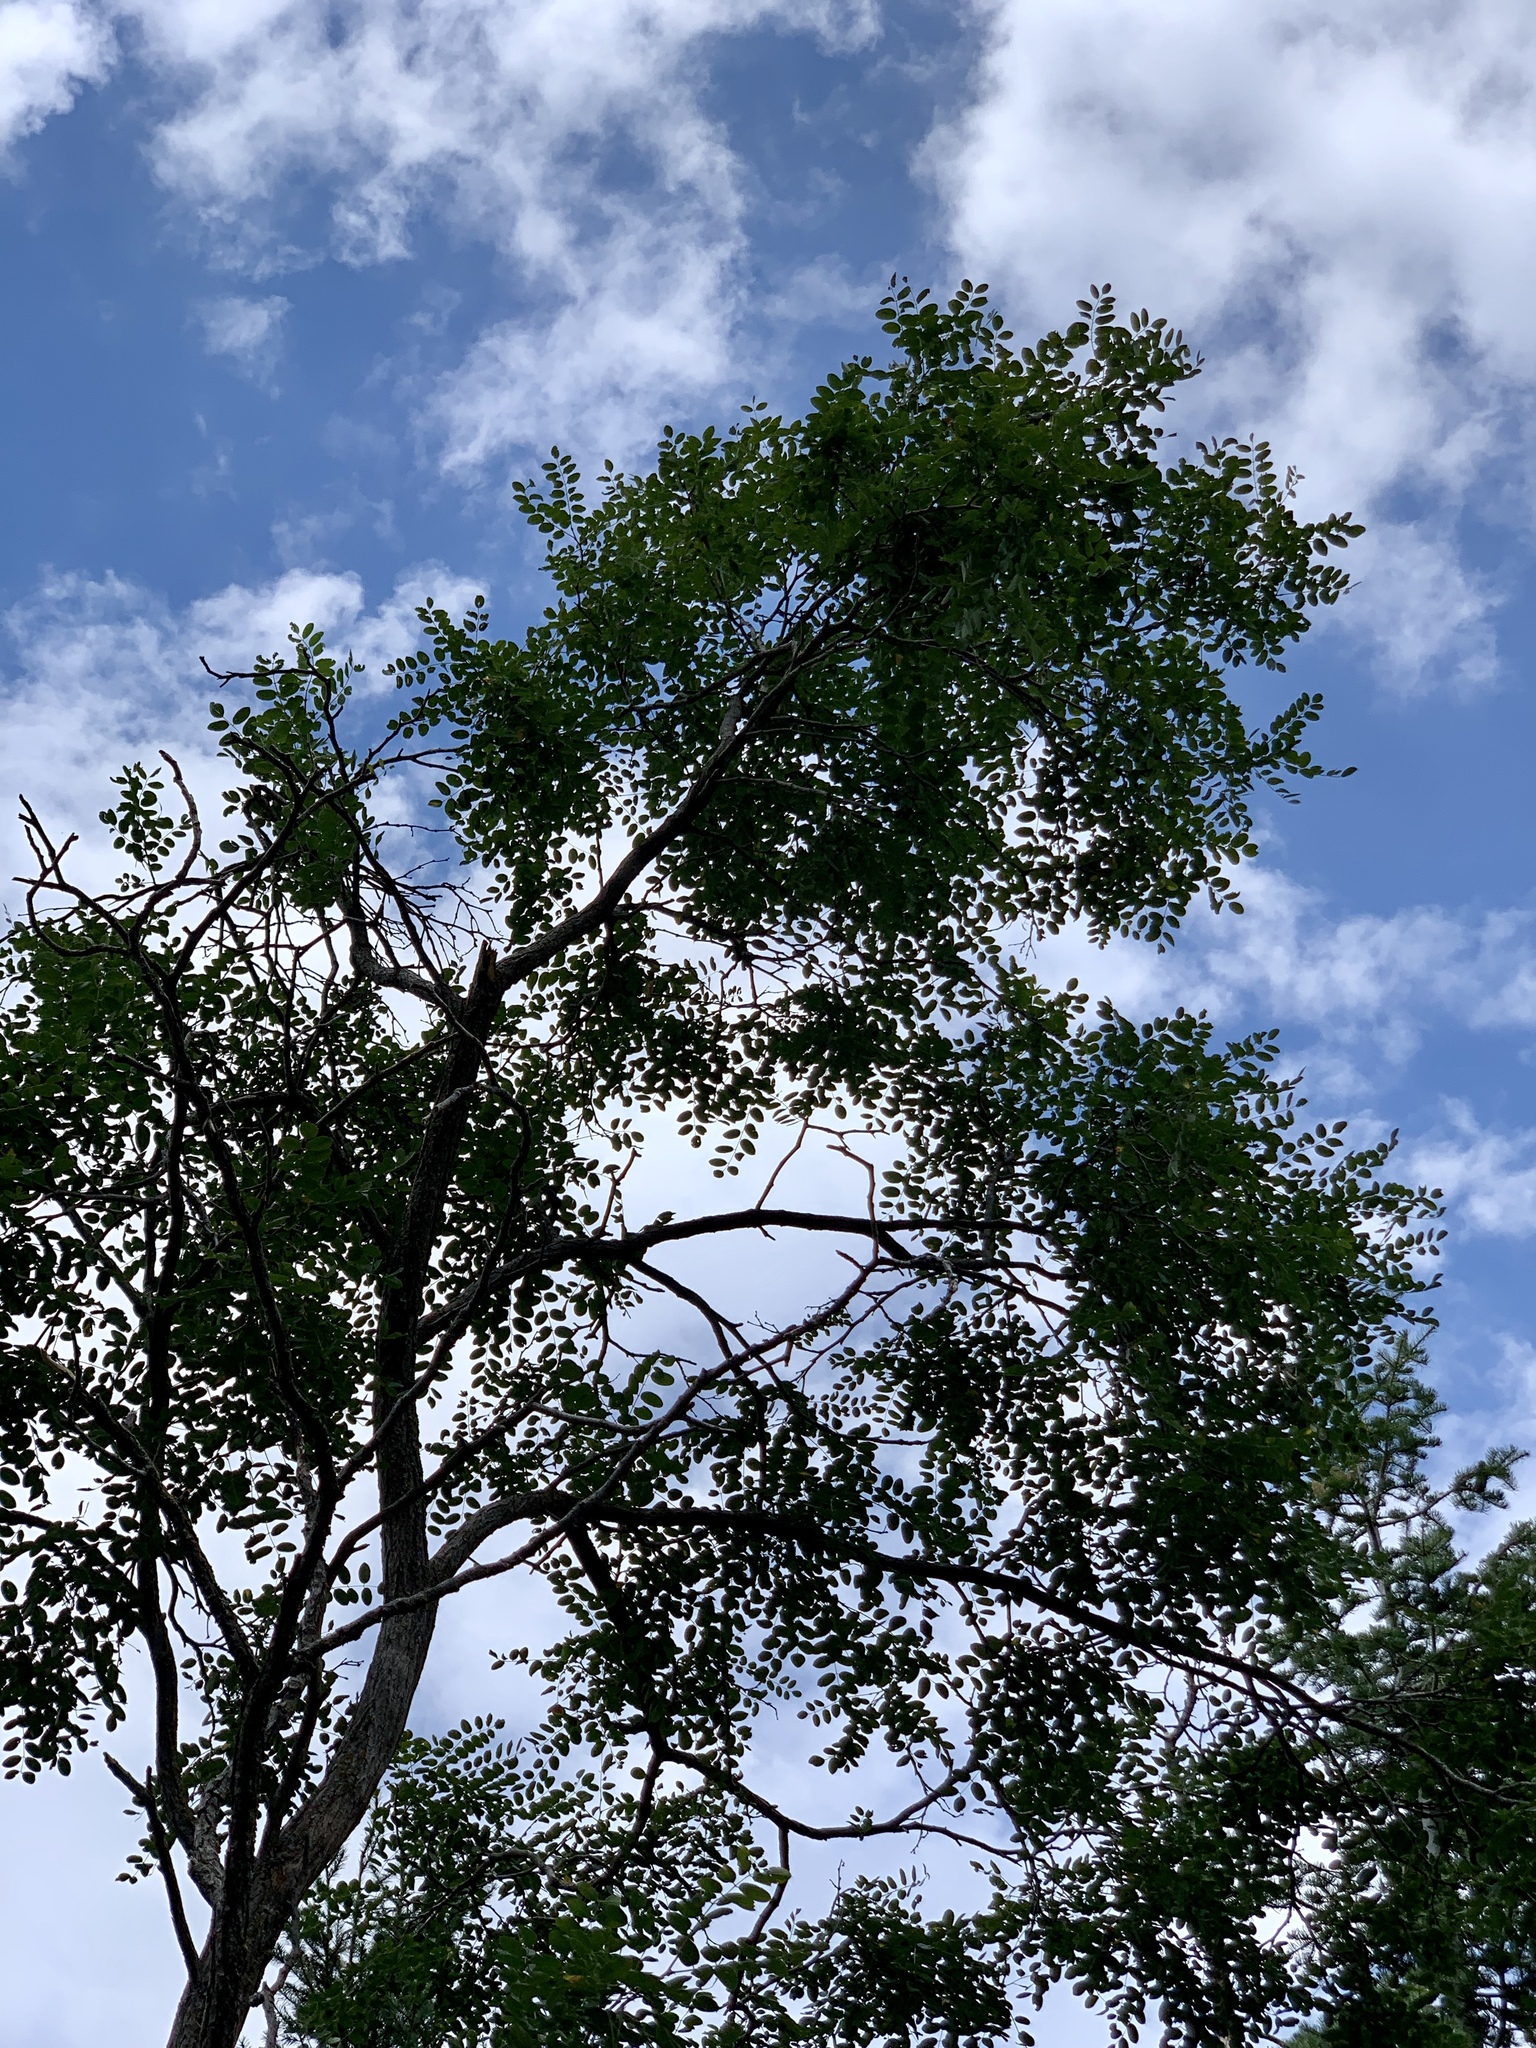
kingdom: Plantae
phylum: Tracheophyta
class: Magnoliopsida
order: Fabales
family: Fabaceae
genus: Robinia
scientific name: Robinia neomexicana
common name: New mexico locust
